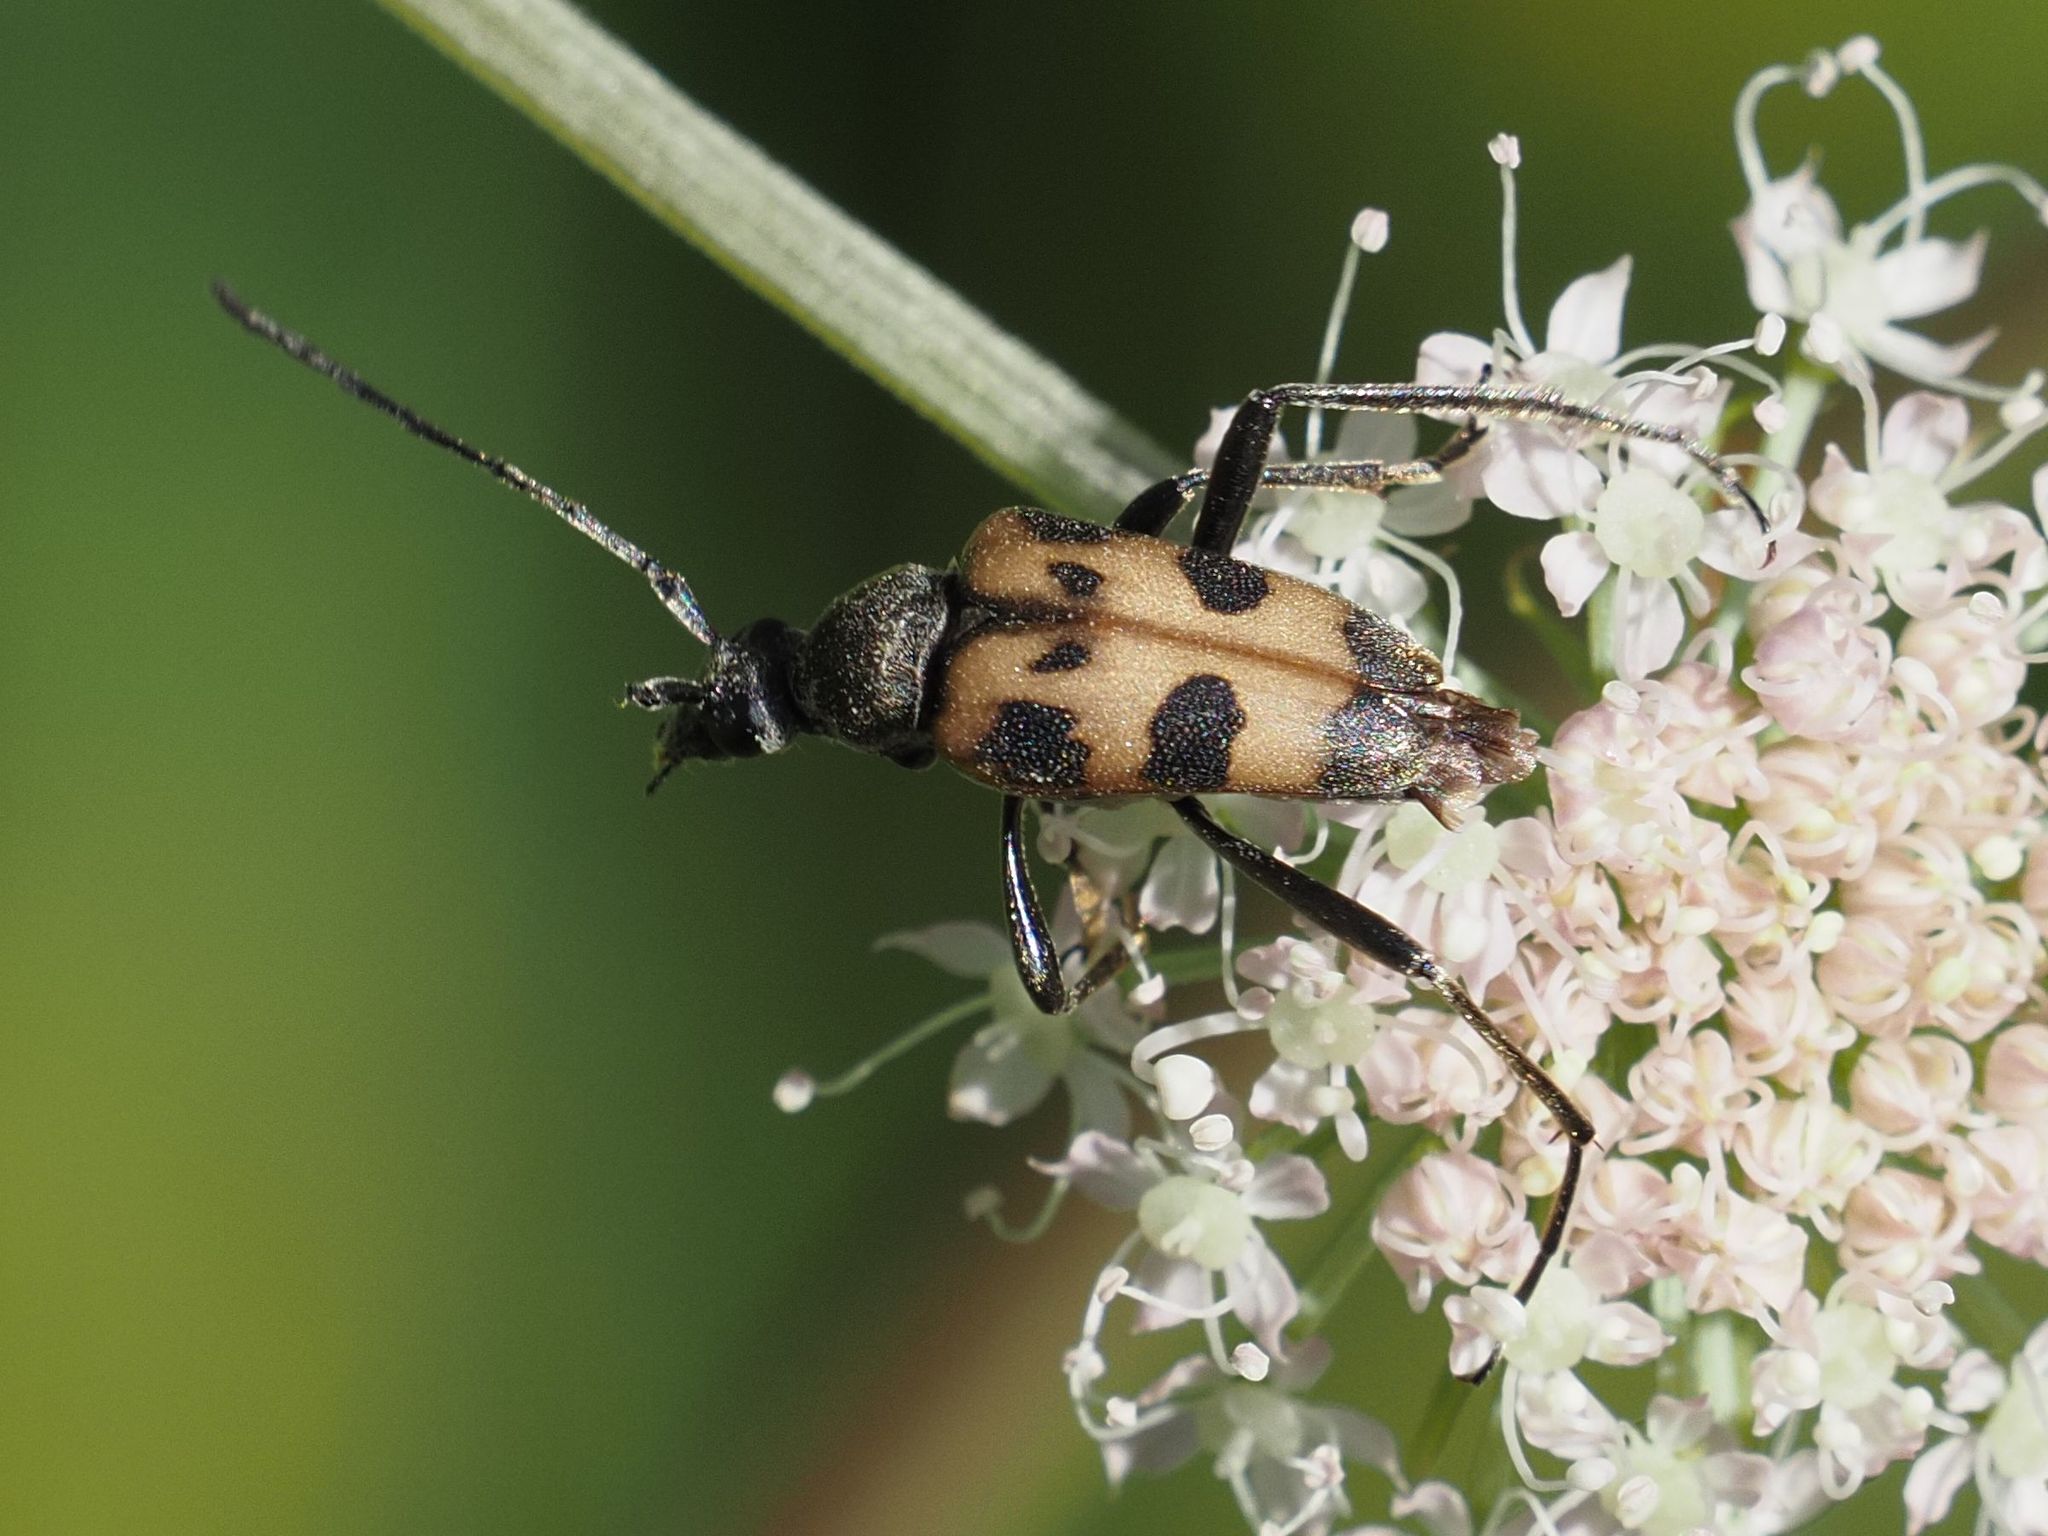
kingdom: Animalia
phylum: Arthropoda
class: Insecta
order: Coleoptera
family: Cerambycidae
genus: Pachytodes
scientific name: Pachytodes cerambyciformis
